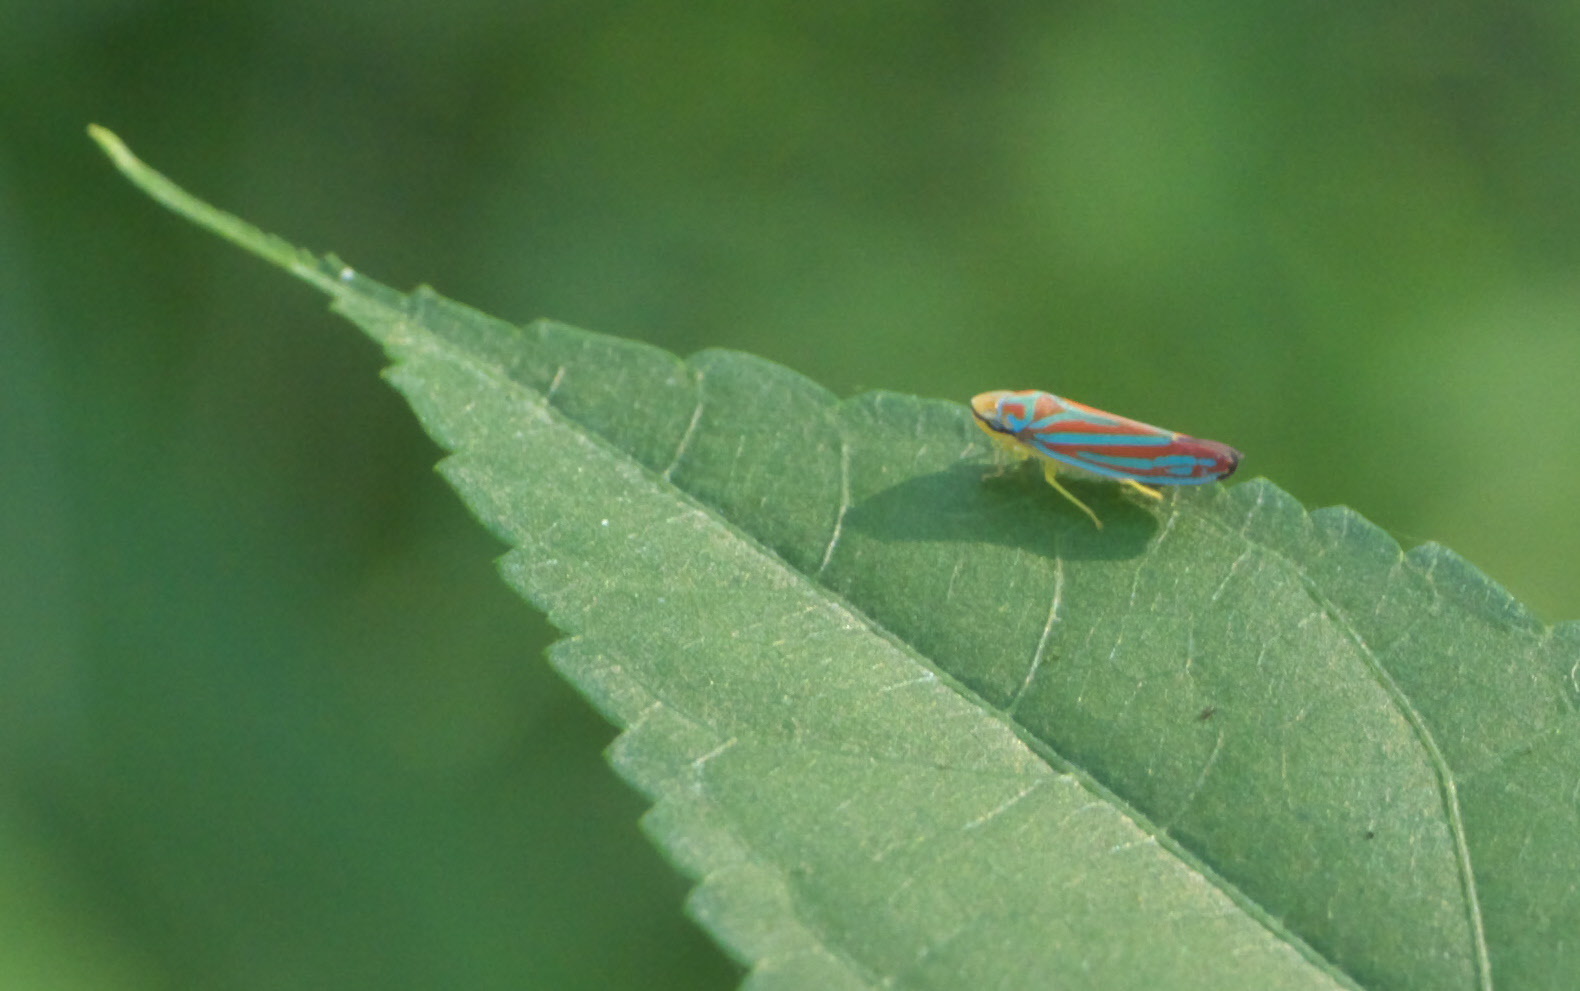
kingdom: Animalia
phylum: Arthropoda
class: Insecta
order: Hemiptera
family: Cicadellidae
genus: Graphocephala
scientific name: Graphocephala coccinea
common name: Candy-striped leafhopper
